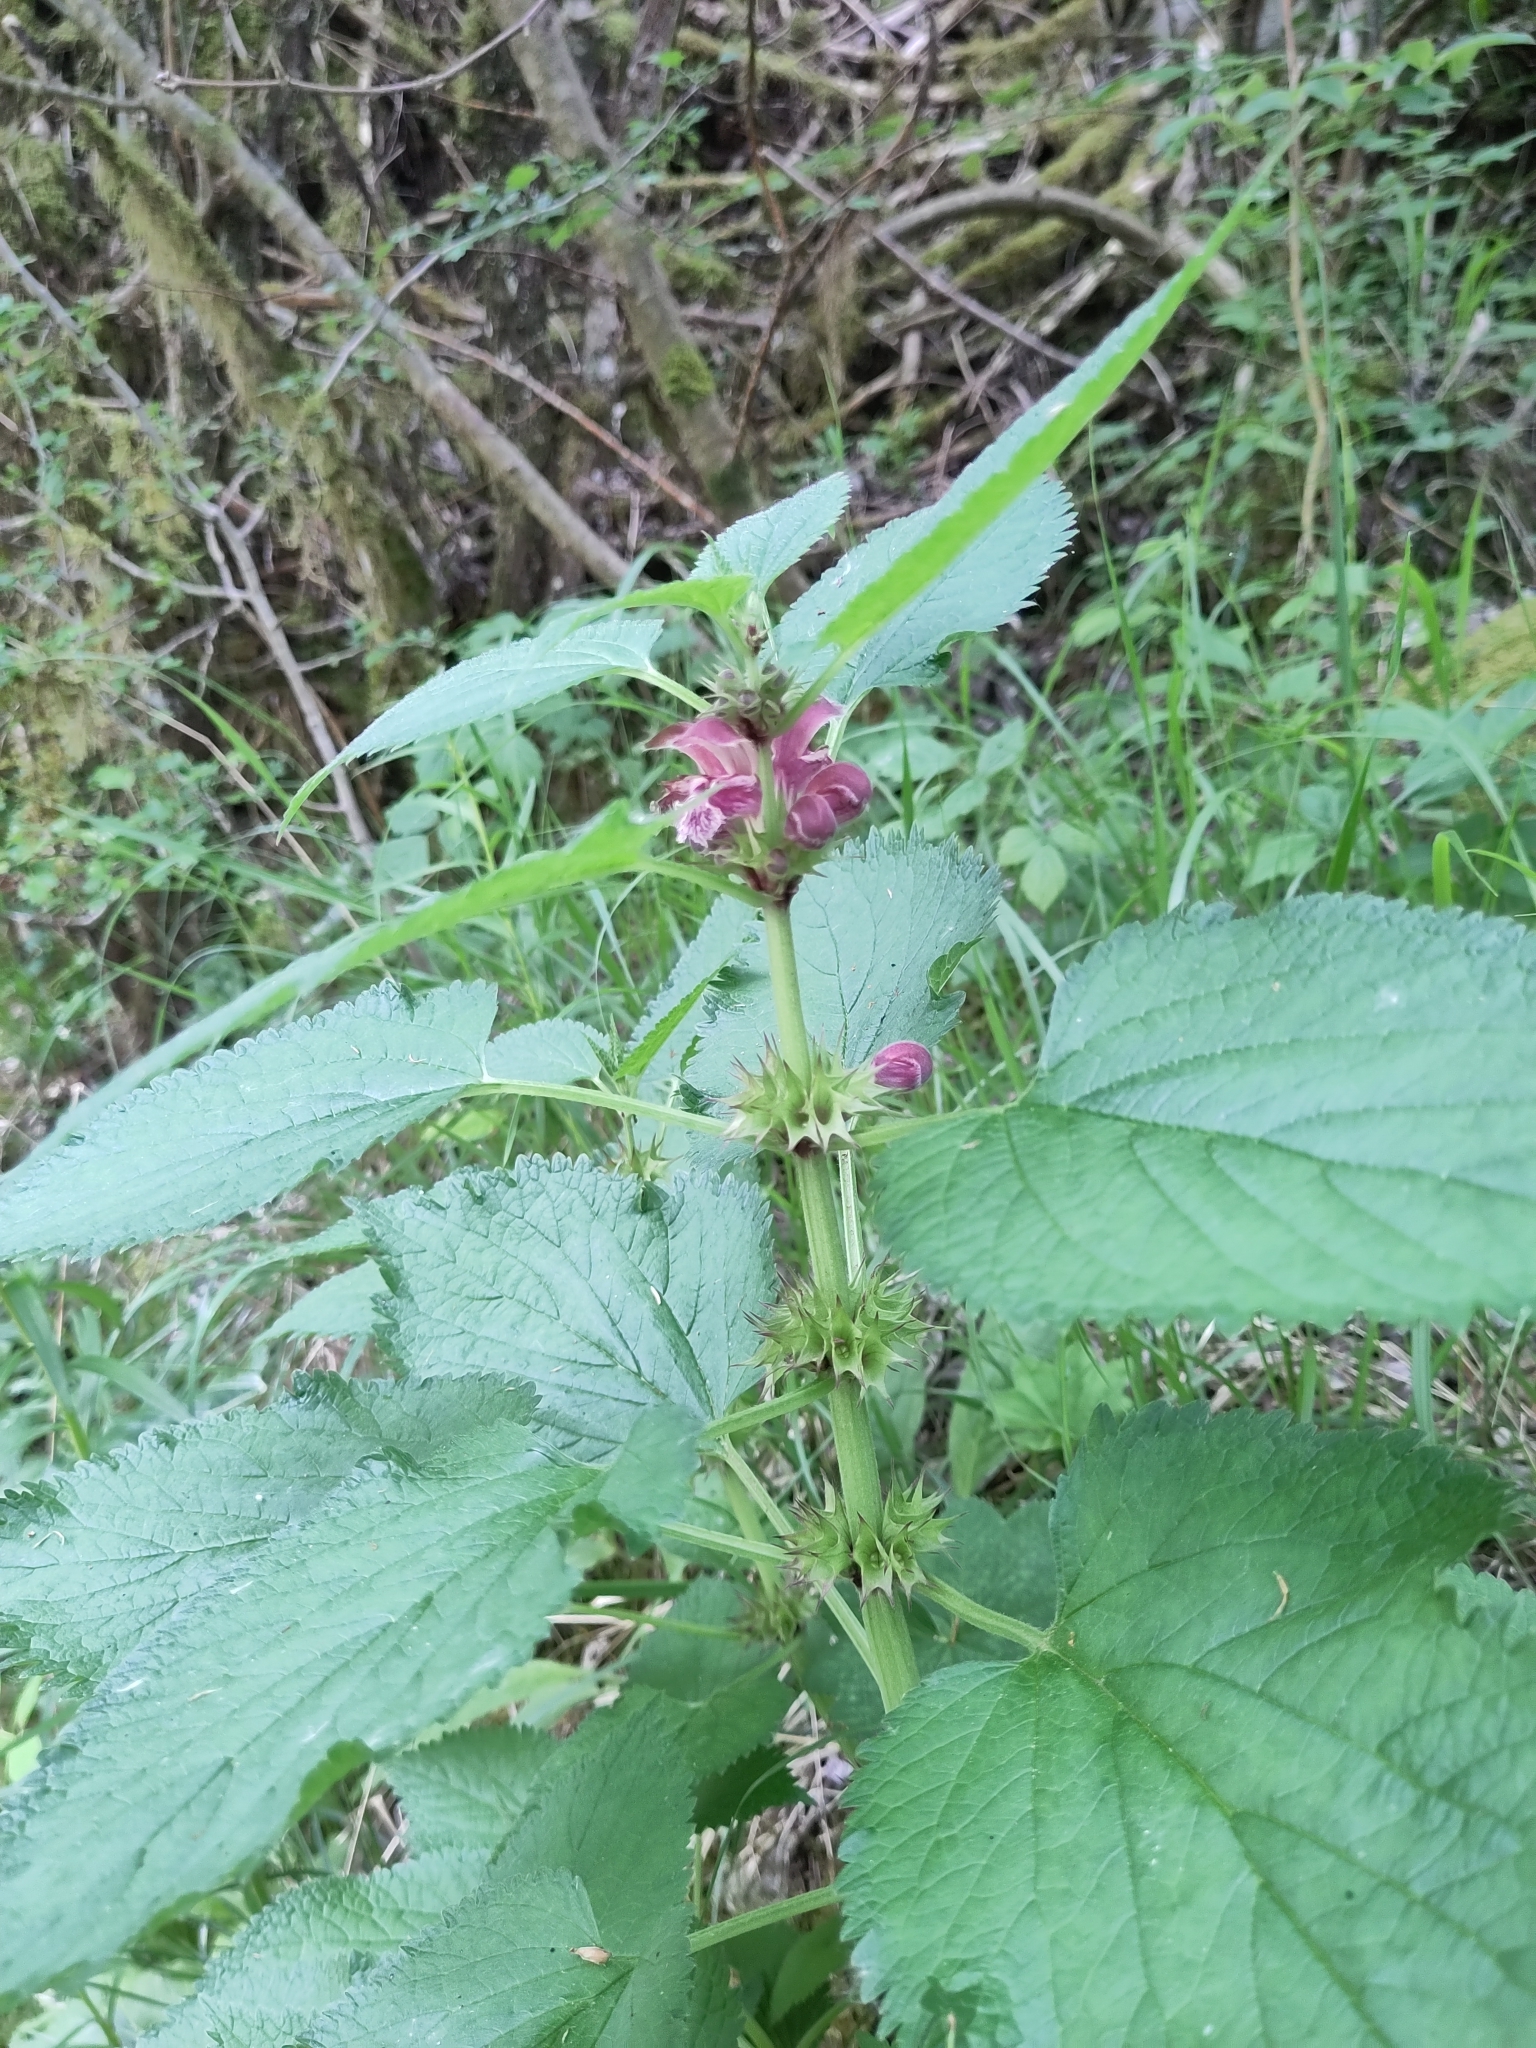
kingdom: Plantae
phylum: Tracheophyta
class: Magnoliopsida
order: Lamiales
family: Lamiaceae
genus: Lamium
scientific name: Lamium orvala
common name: Balm-leaved archangel
